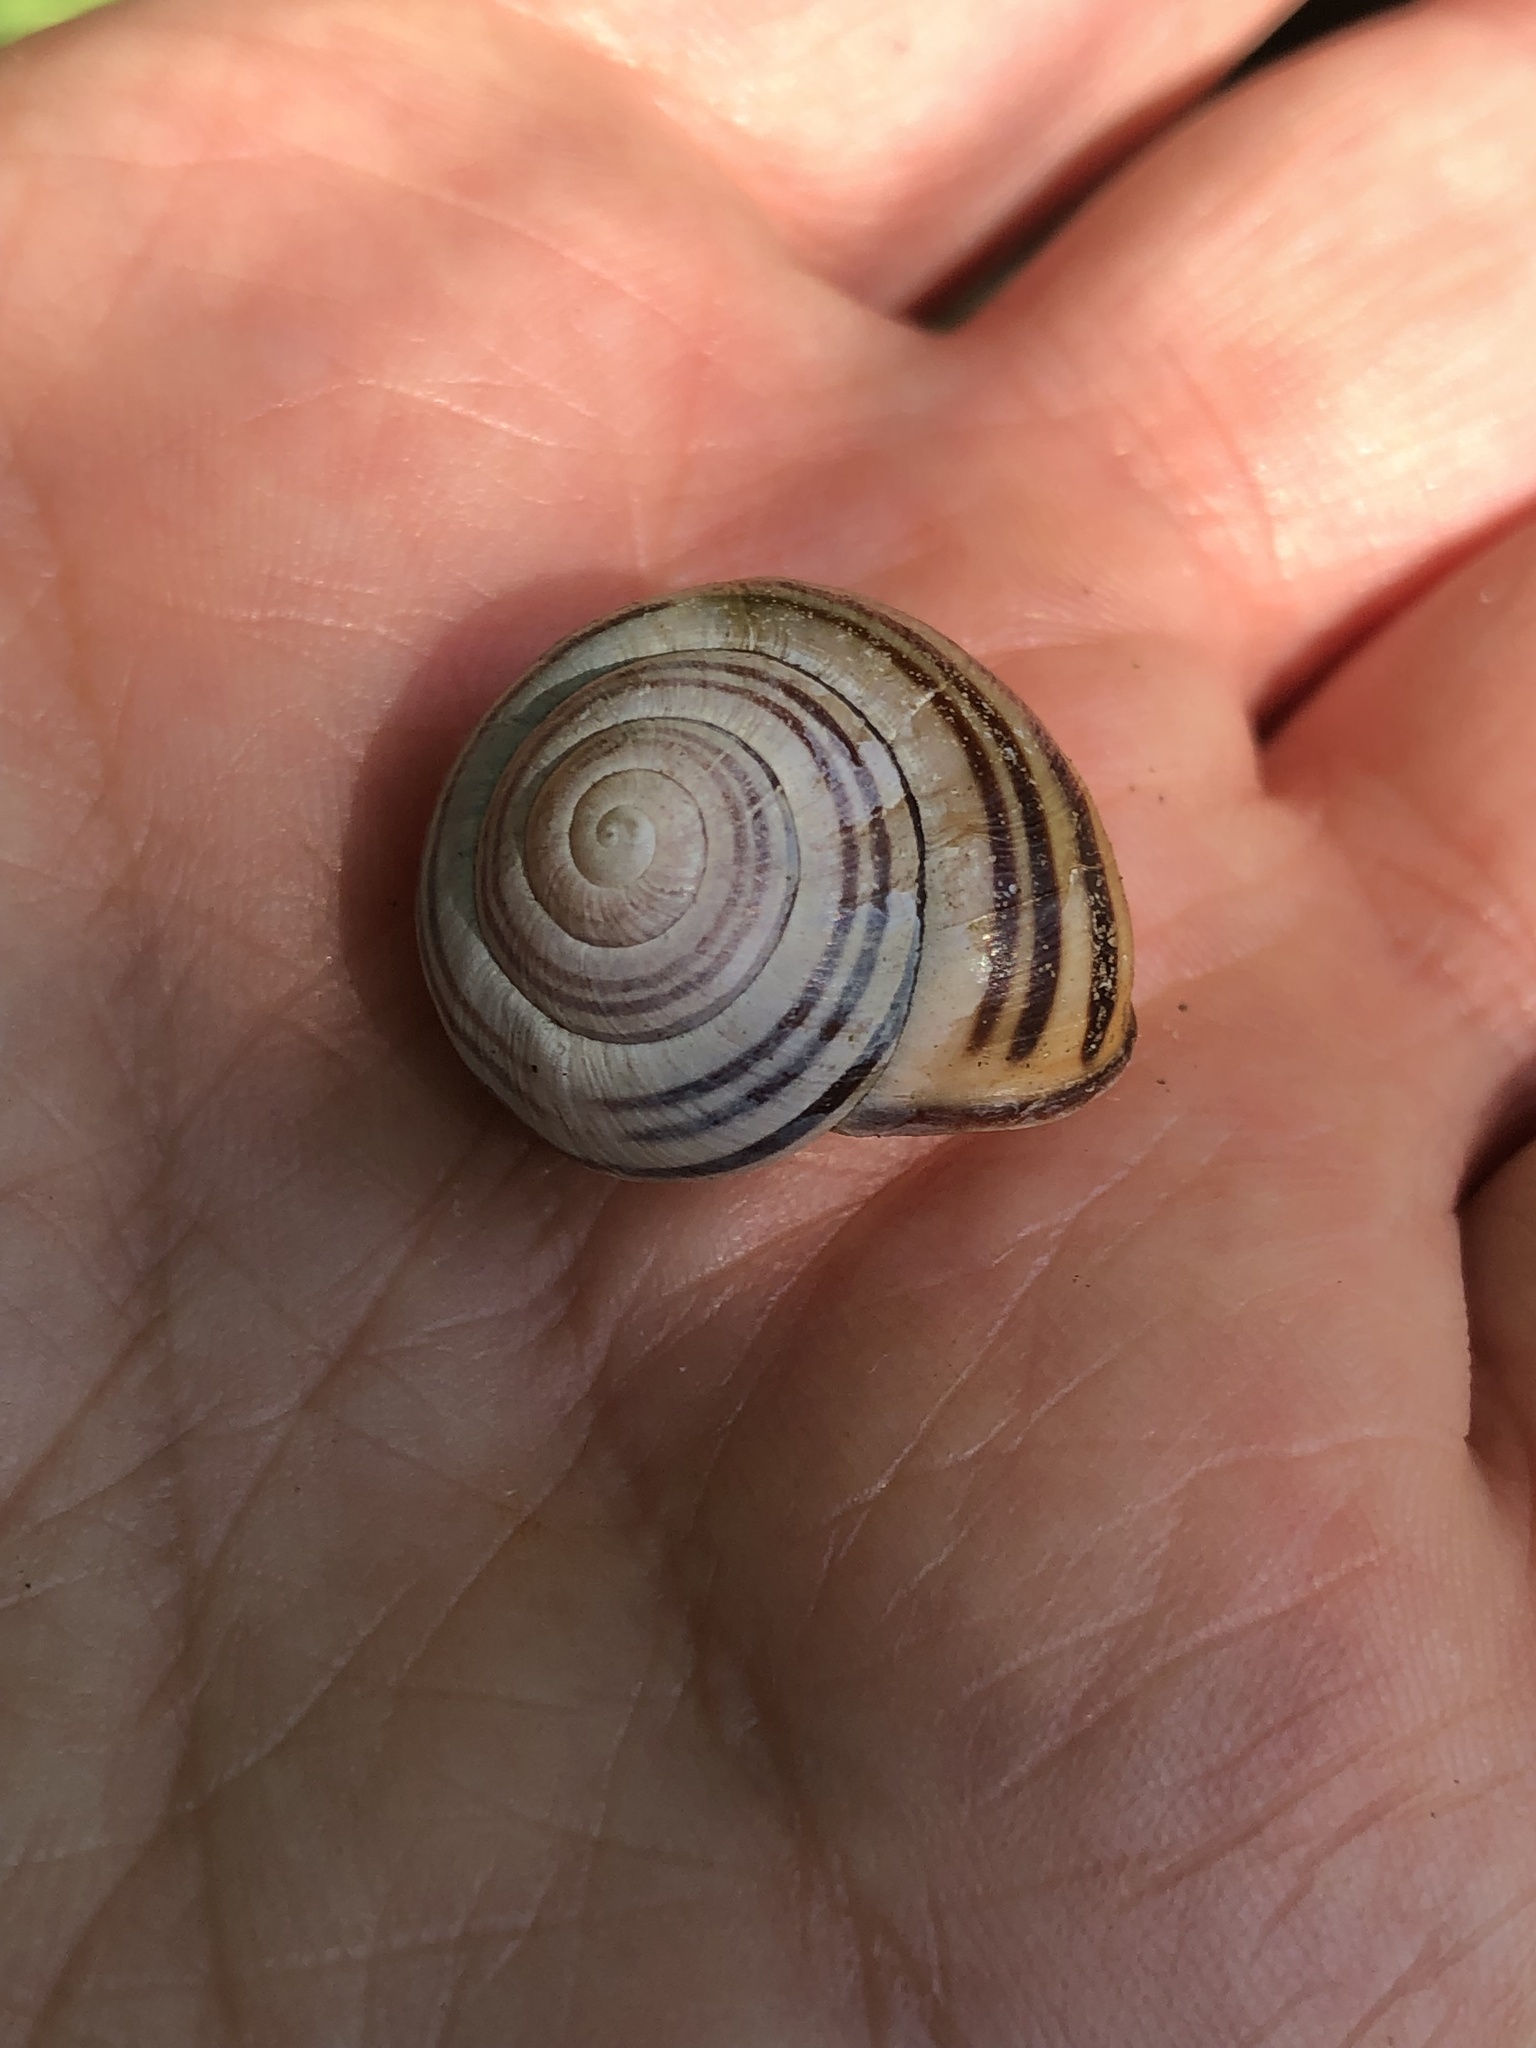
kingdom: Animalia
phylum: Mollusca
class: Gastropoda
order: Stylommatophora
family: Helicidae
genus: Cepaea
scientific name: Cepaea nemoralis
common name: Grovesnail
